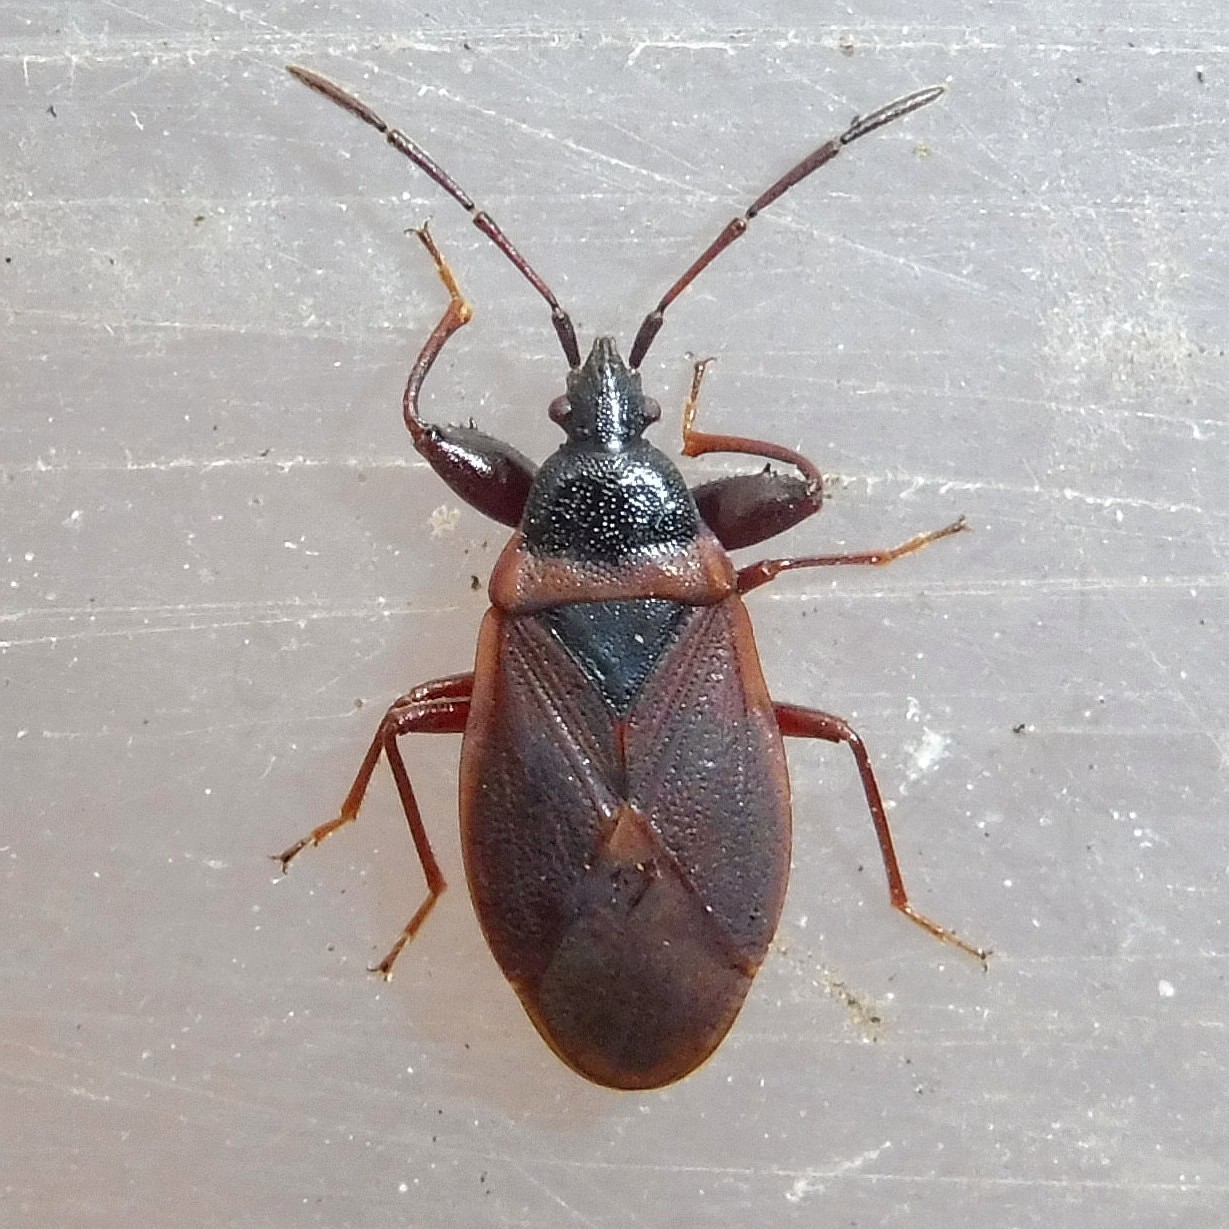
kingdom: Animalia
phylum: Arthropoda
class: Insecta
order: Hemiptera
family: Rhyparochromidae
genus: Gastrodes
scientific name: Gastrodes grossipes
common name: Pine cone bug
